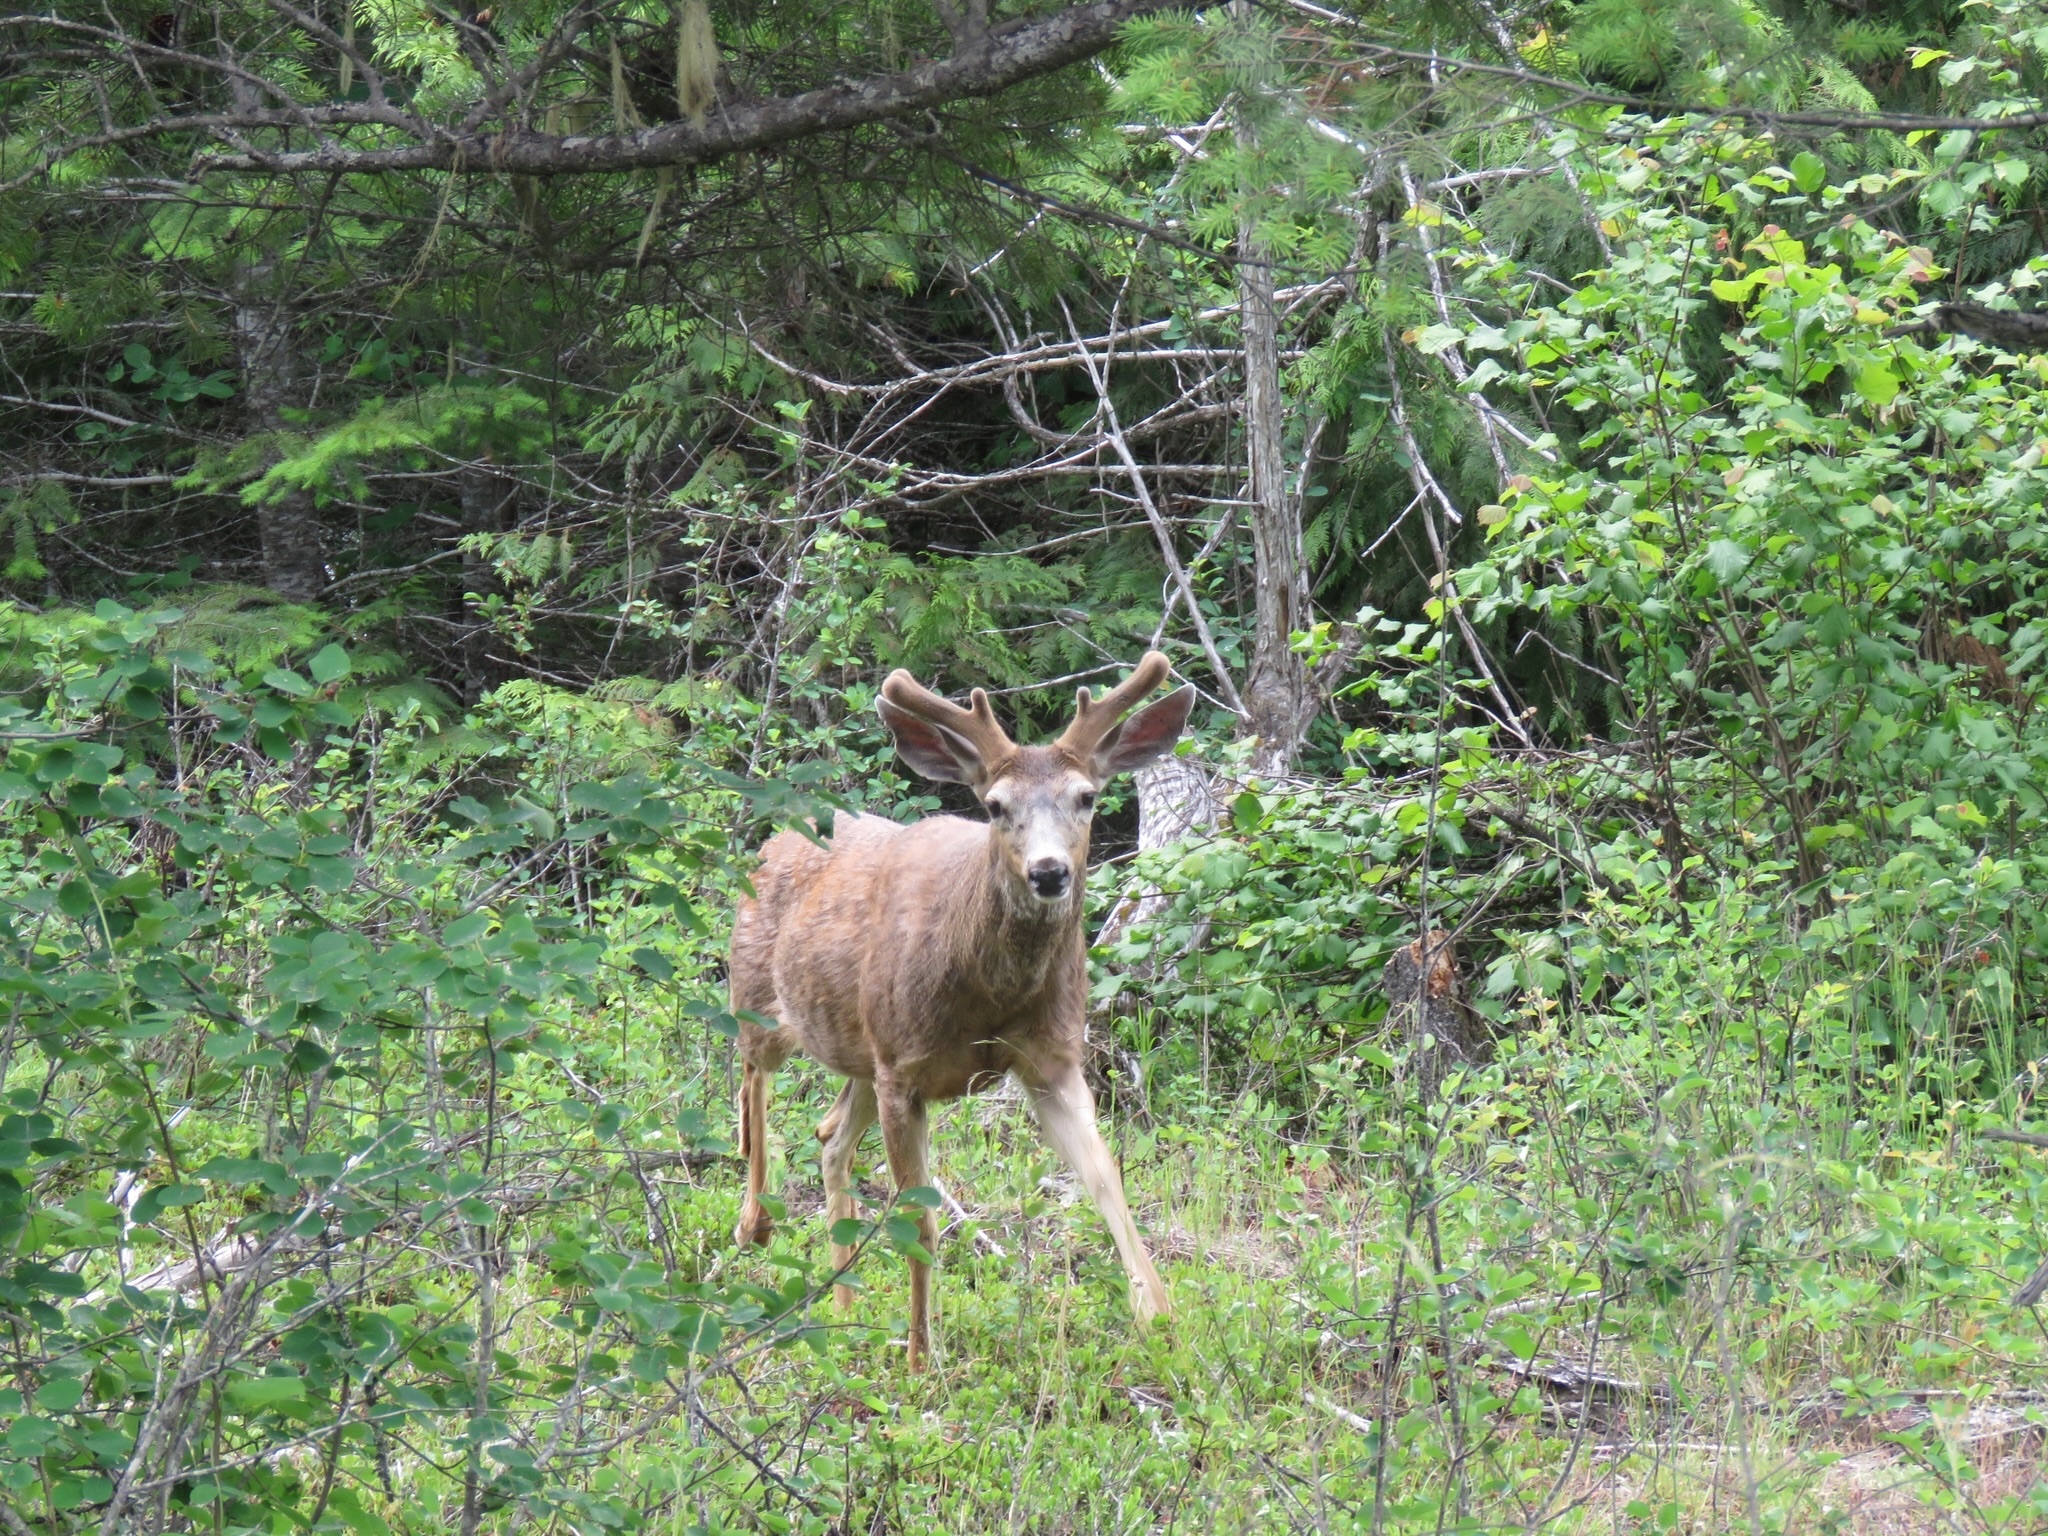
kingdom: Animalia
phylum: Chordata
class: Mammalia
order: Artiodactyla
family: Cervidae
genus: Odocoileus
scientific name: Odocoileus hemionus
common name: Mule deer
